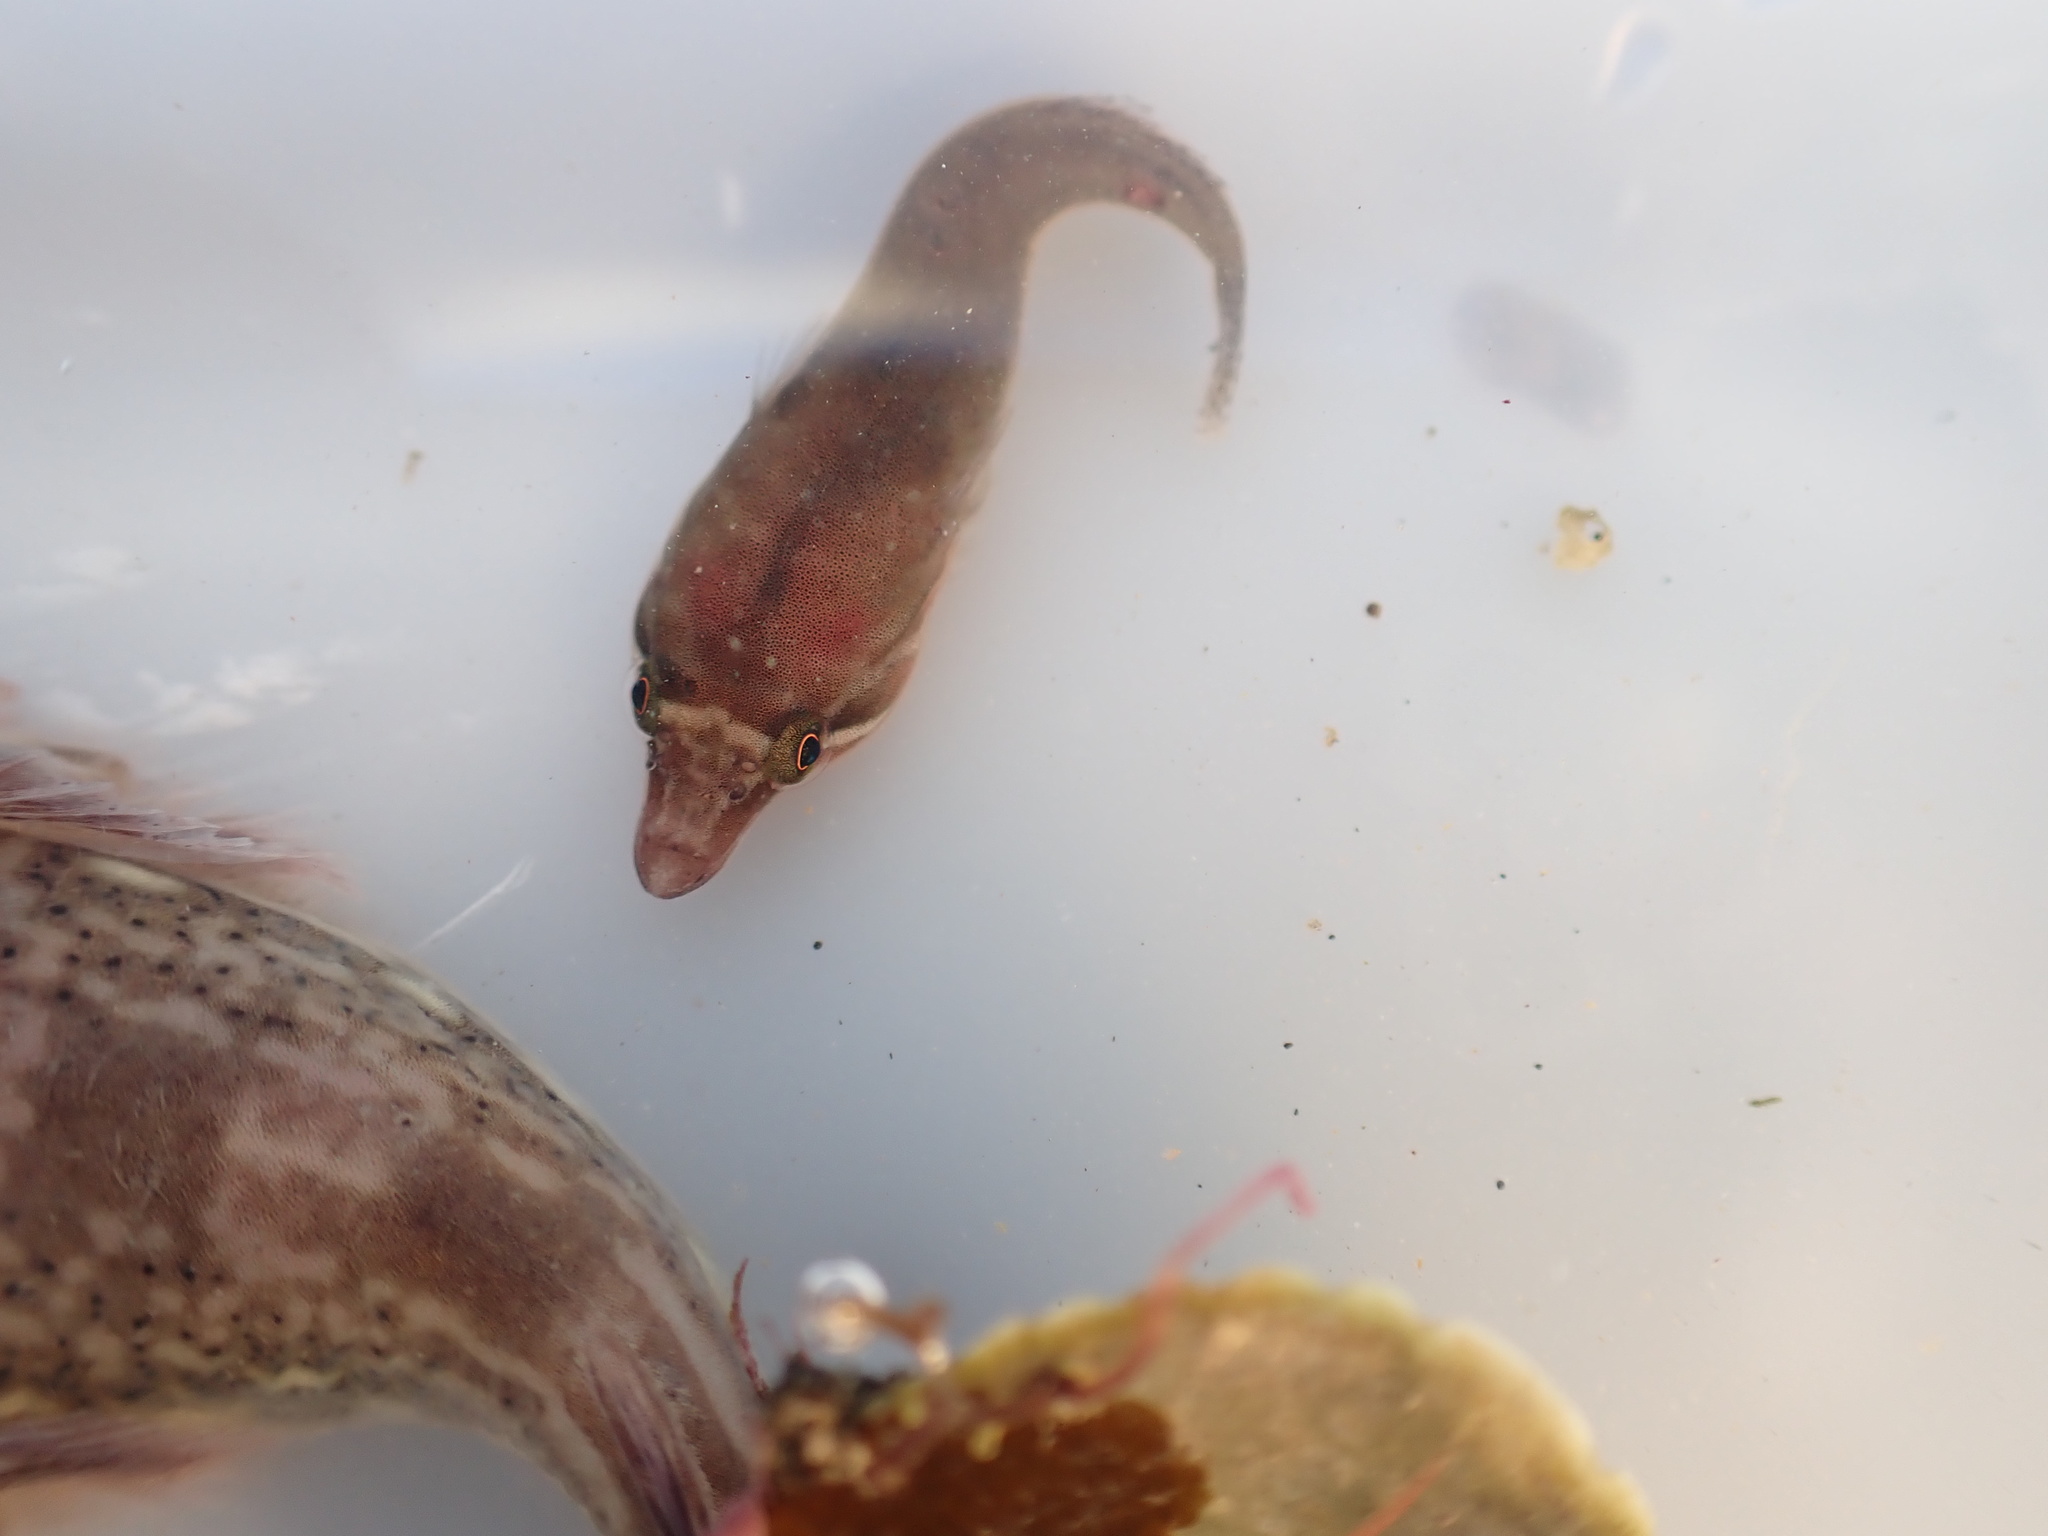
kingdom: Animalia
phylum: Chordata
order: Gobiesociformes
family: Gobiesocidae
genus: Dellichthys
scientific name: Dellichthys morelandi
